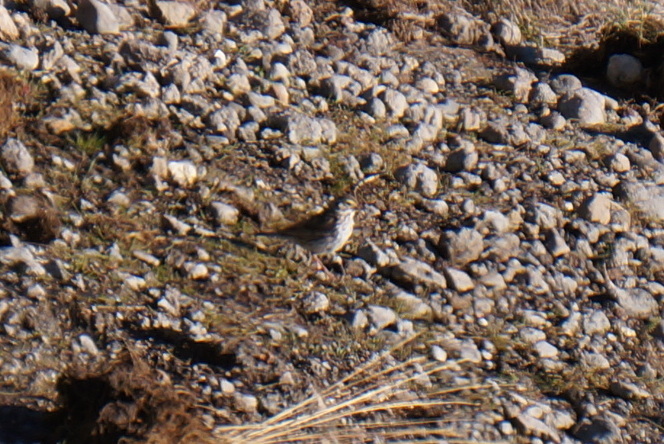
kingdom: Animalia
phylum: Chordata
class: Aves
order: Passeriformes
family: Passerellidae
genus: Passerculus
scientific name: Passerculus sandwichensis
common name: Savannah sparrow
